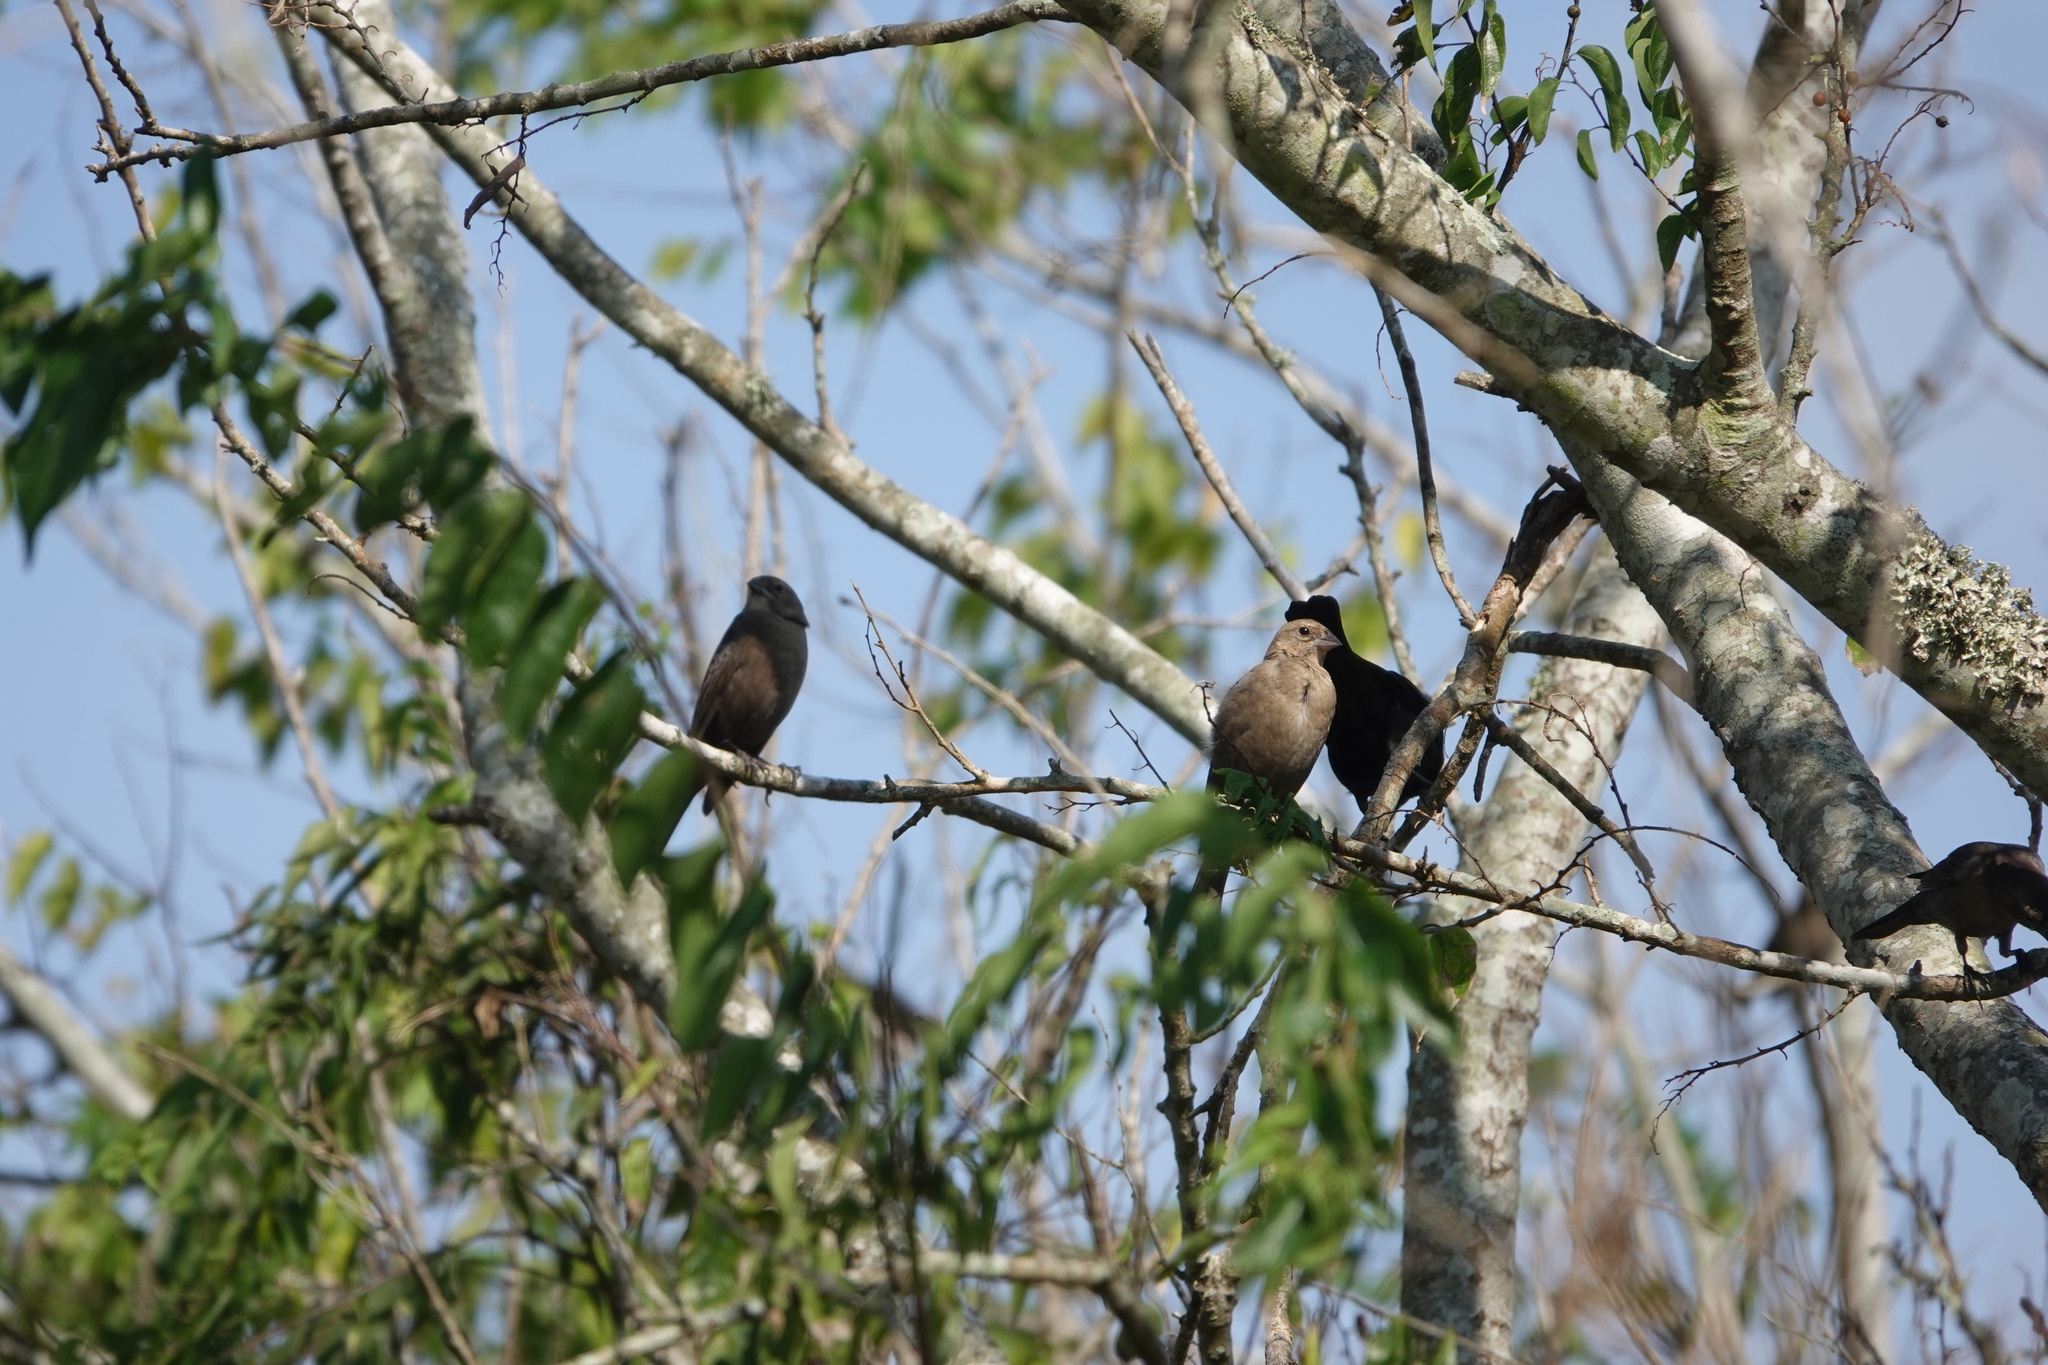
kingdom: Animalia
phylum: Chordata
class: Aves
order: Passeriformes
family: Icteridae
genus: Molothrus
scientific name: Molothrus ater
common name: Brown-headed cowbird
